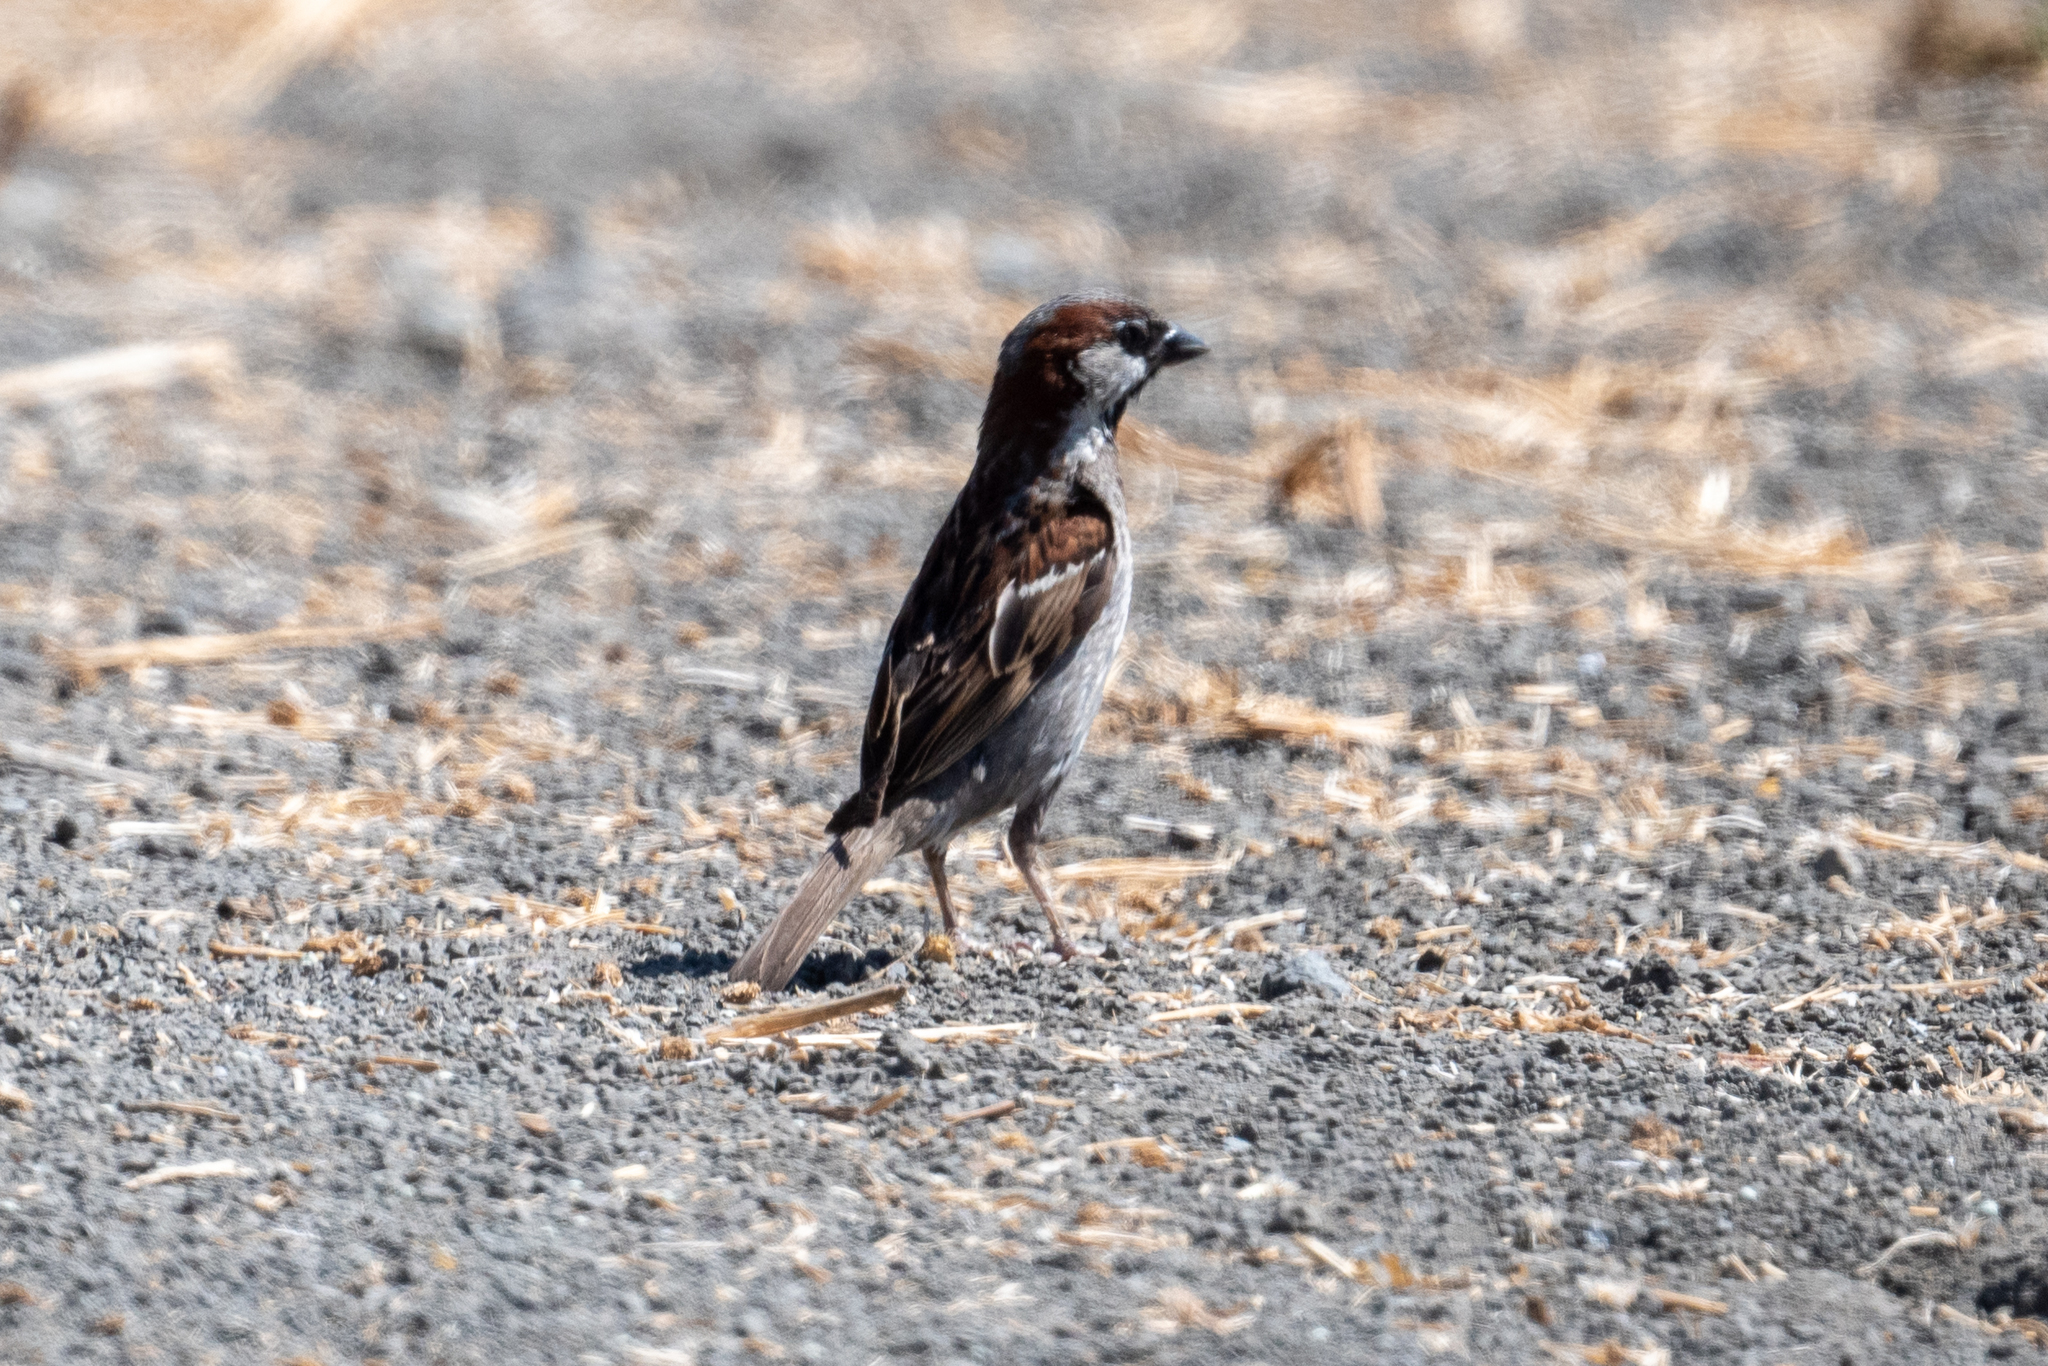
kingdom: Animalia
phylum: Chordata
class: Aves
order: Passeriformes
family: Passeridae
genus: Passer
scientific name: Passer domesticus
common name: House sparrow
